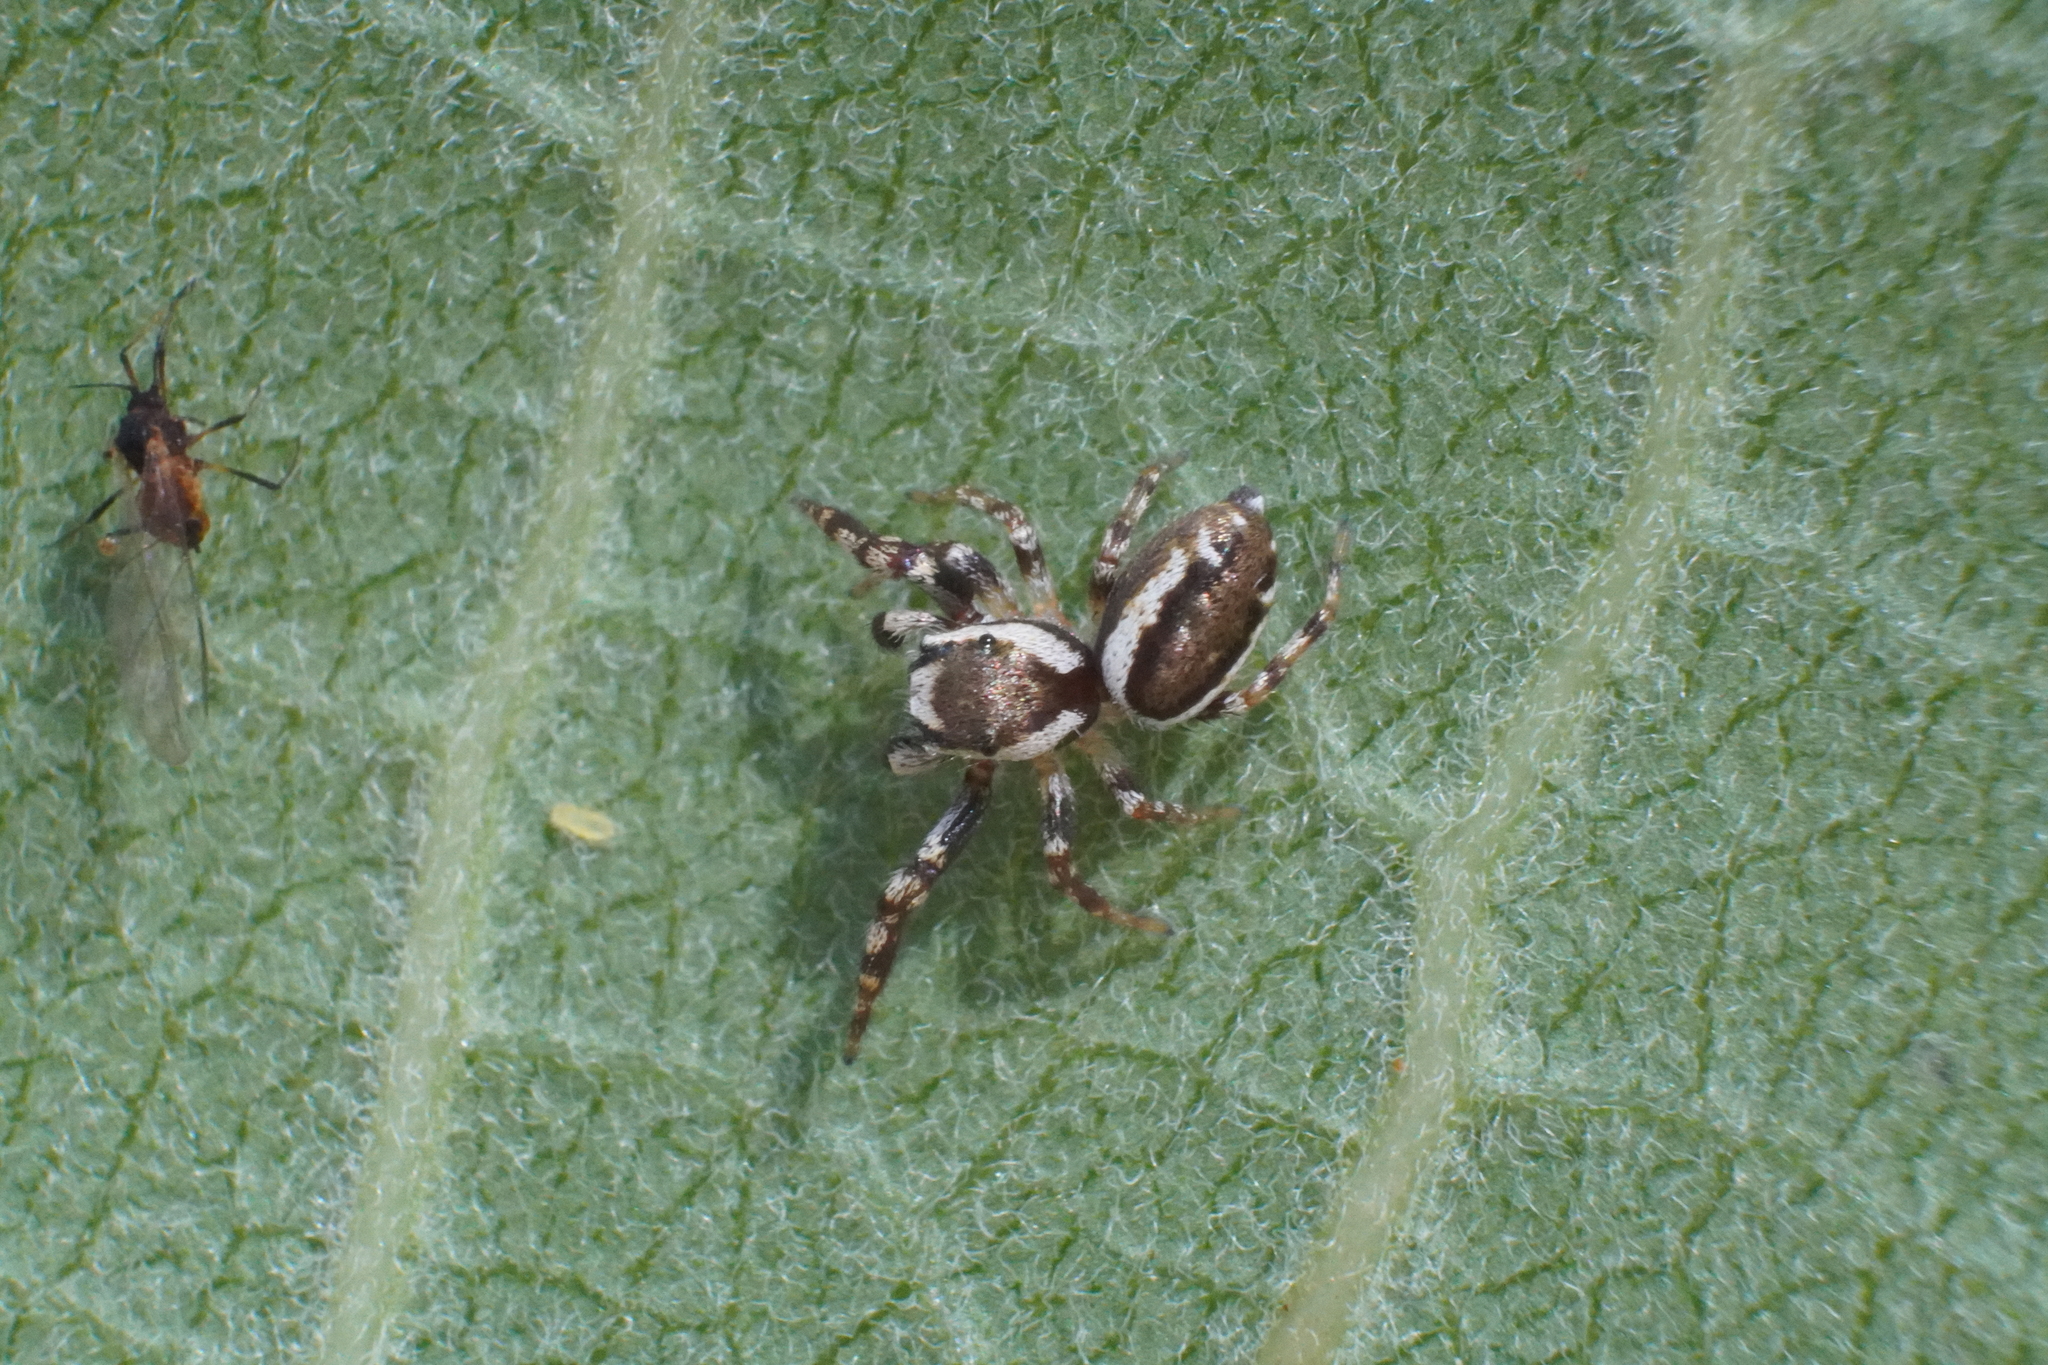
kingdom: Animalia
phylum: Arthropoda
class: Arachnida
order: Araneae
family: Salticidae
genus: Pelegrina
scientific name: Pelegrina proterva
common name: Common white-cheeked jumping spider
